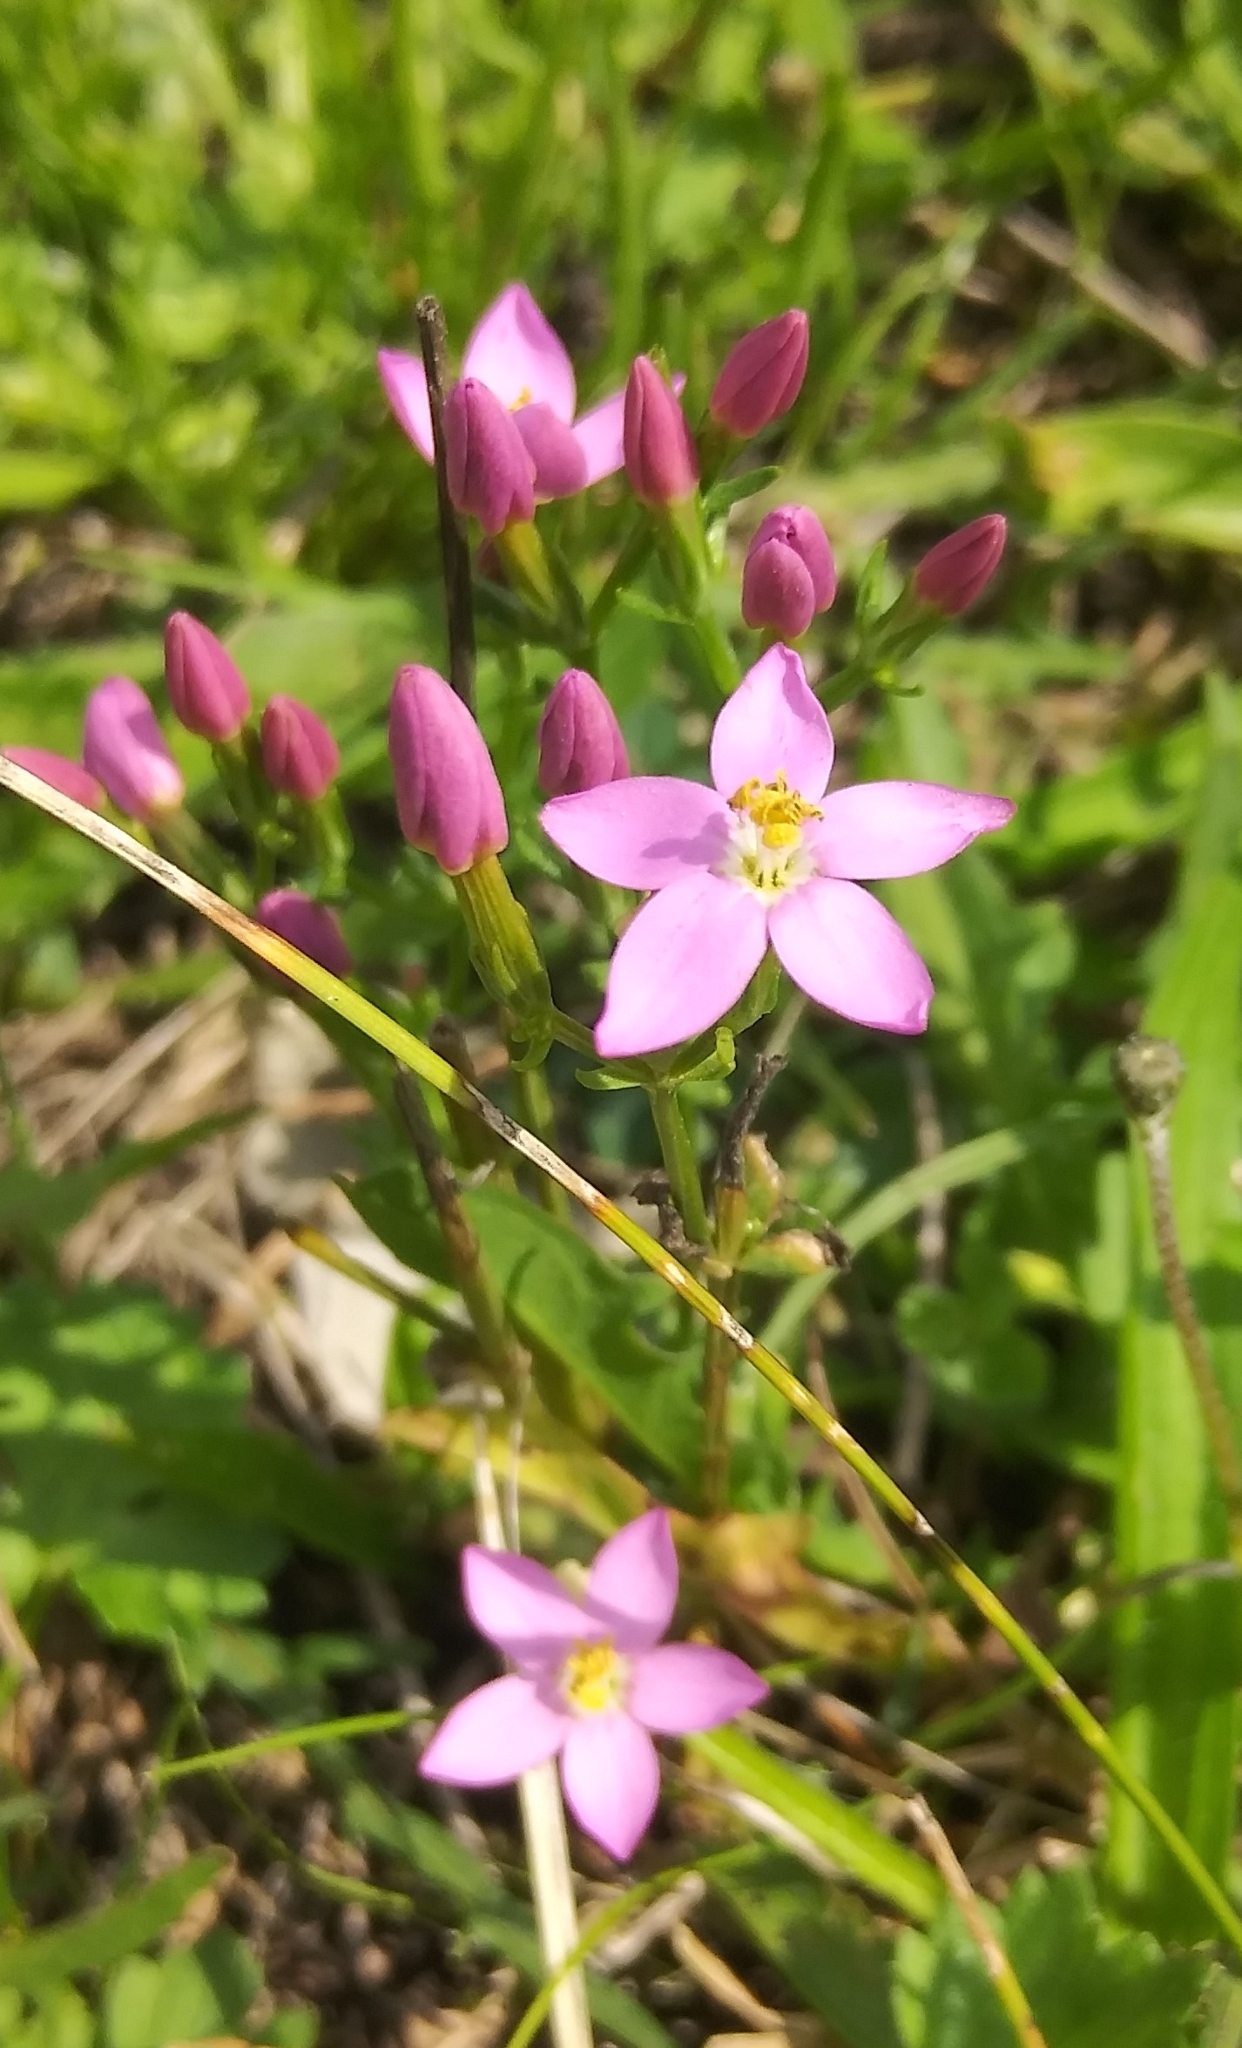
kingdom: Plantae
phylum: Tracheophyta
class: Magnoliopsida
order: Gentianales
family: Gentianaceae
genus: Centaurium
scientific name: Centaurium erythraea
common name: Common centaury
